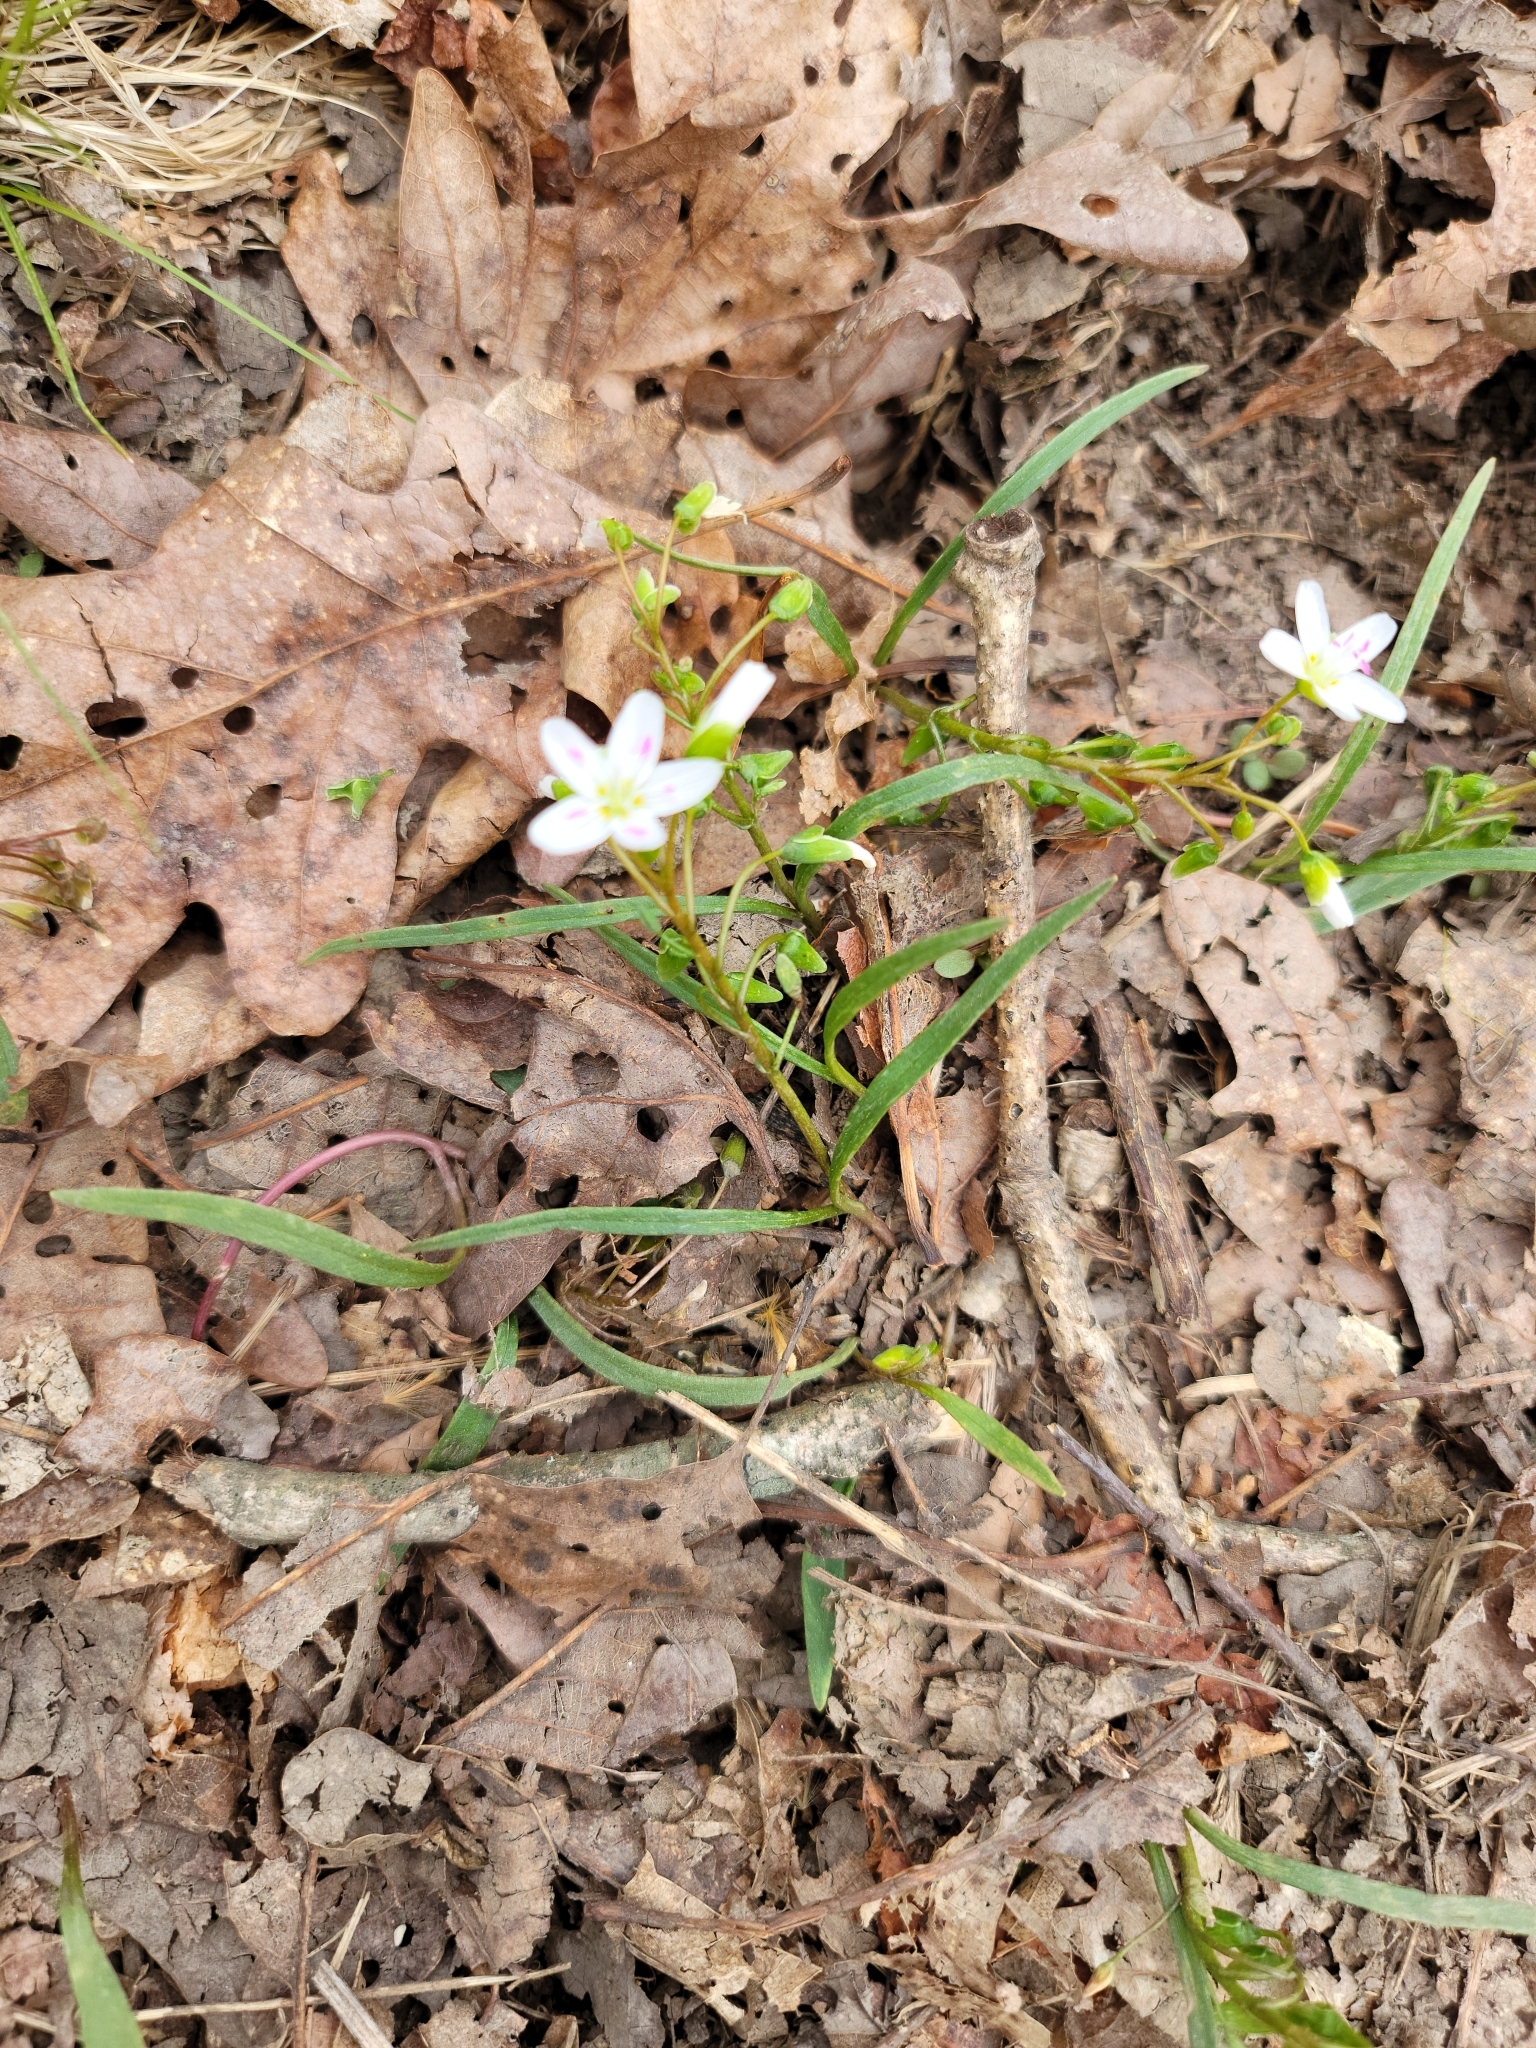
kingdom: Plantae
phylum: Tracheophyta
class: Magnoliopsida
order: Caryophyllales
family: Montiaceae
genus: Claytonia
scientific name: Claytonia virginica
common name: Virginia springbeauty
